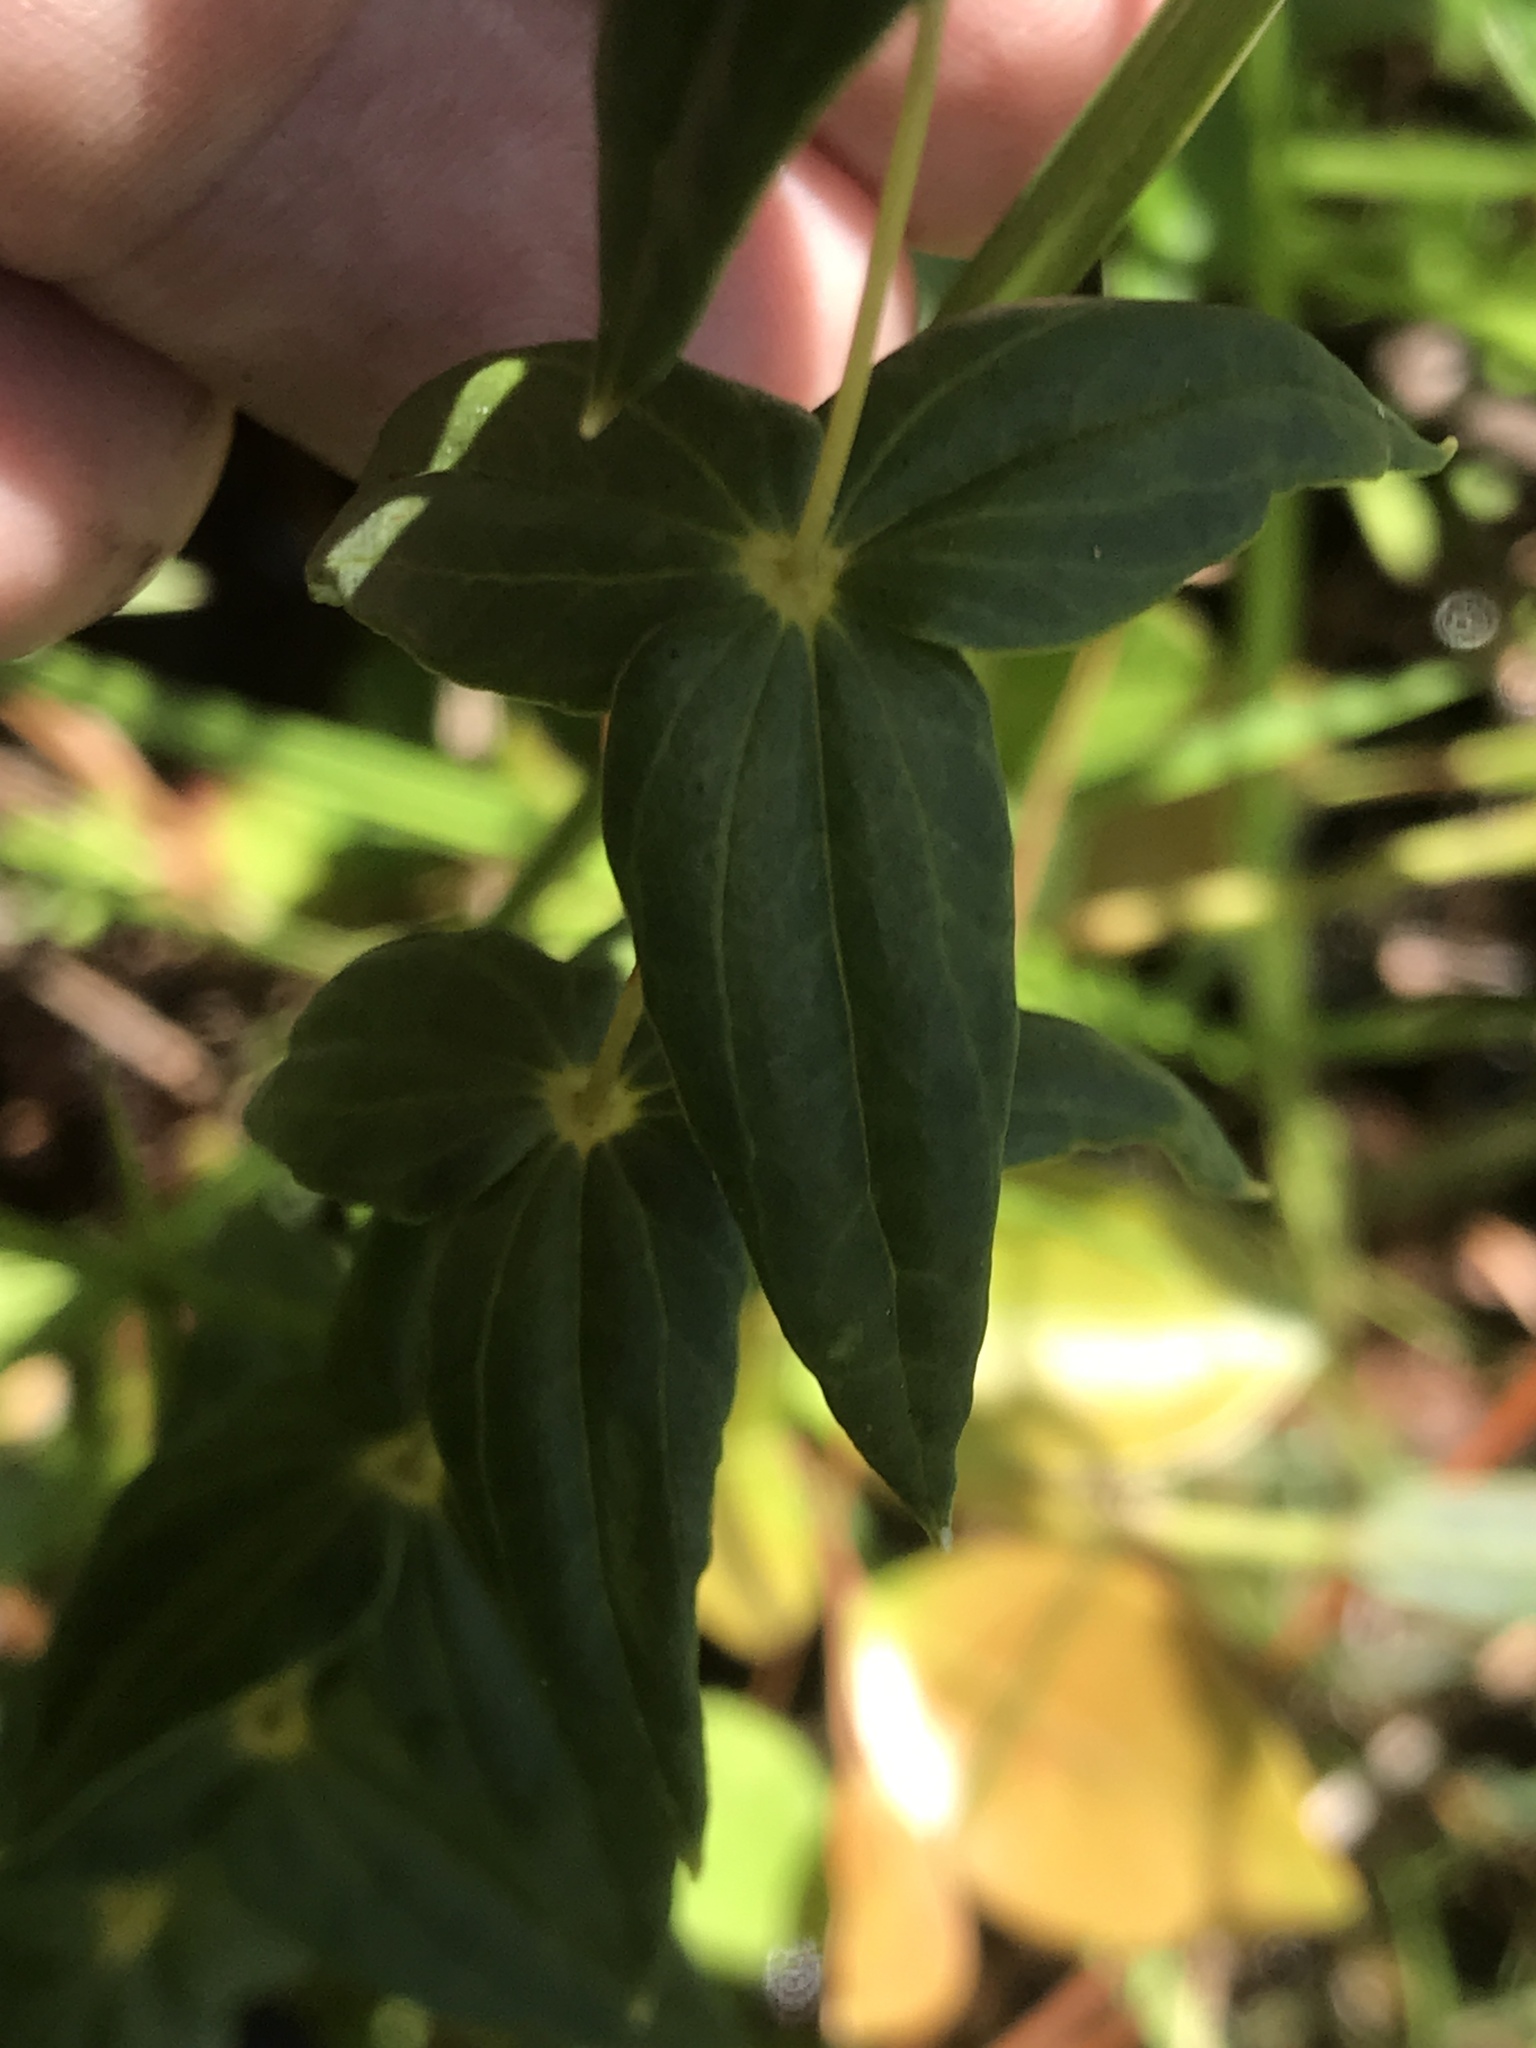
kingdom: Plantae
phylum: Tracheophyta
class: Magnoliopsida
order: Ericales
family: Primulaceae
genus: Lysimachia
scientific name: Lysimachia asperulifolia
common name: Rough-leaf loosestrife
